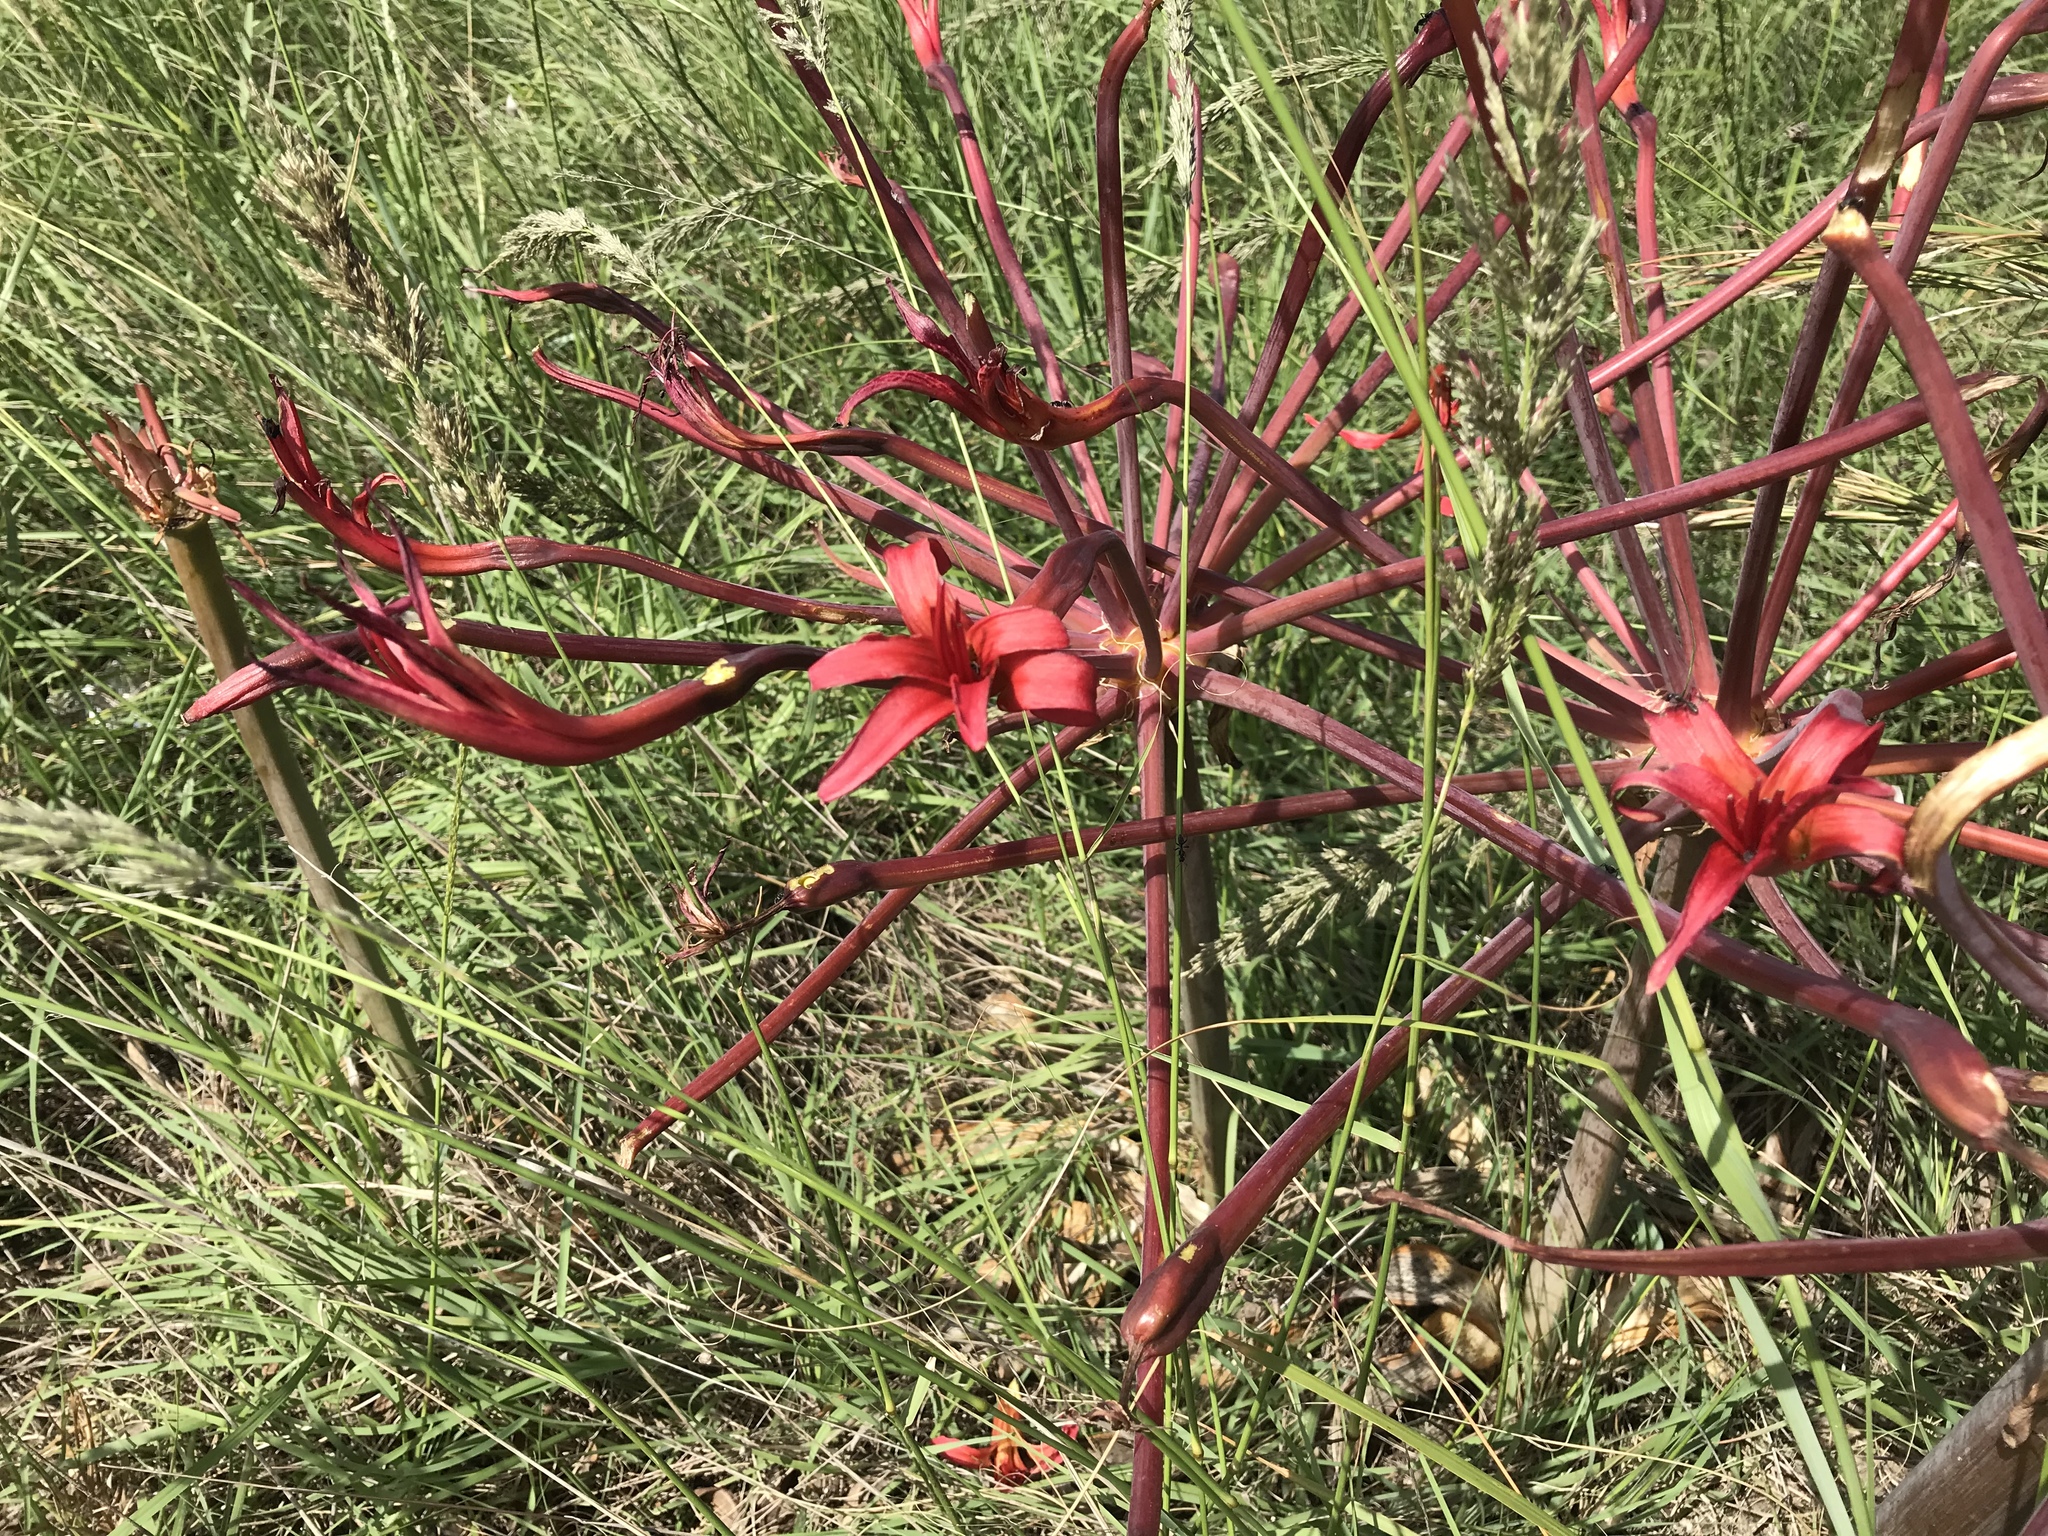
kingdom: Plantae
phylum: Tracheophyta
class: Liliopsida
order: Asparagales
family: Amaryllidaceae
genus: Brunsvigia
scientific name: Brunsvigia litoralis
